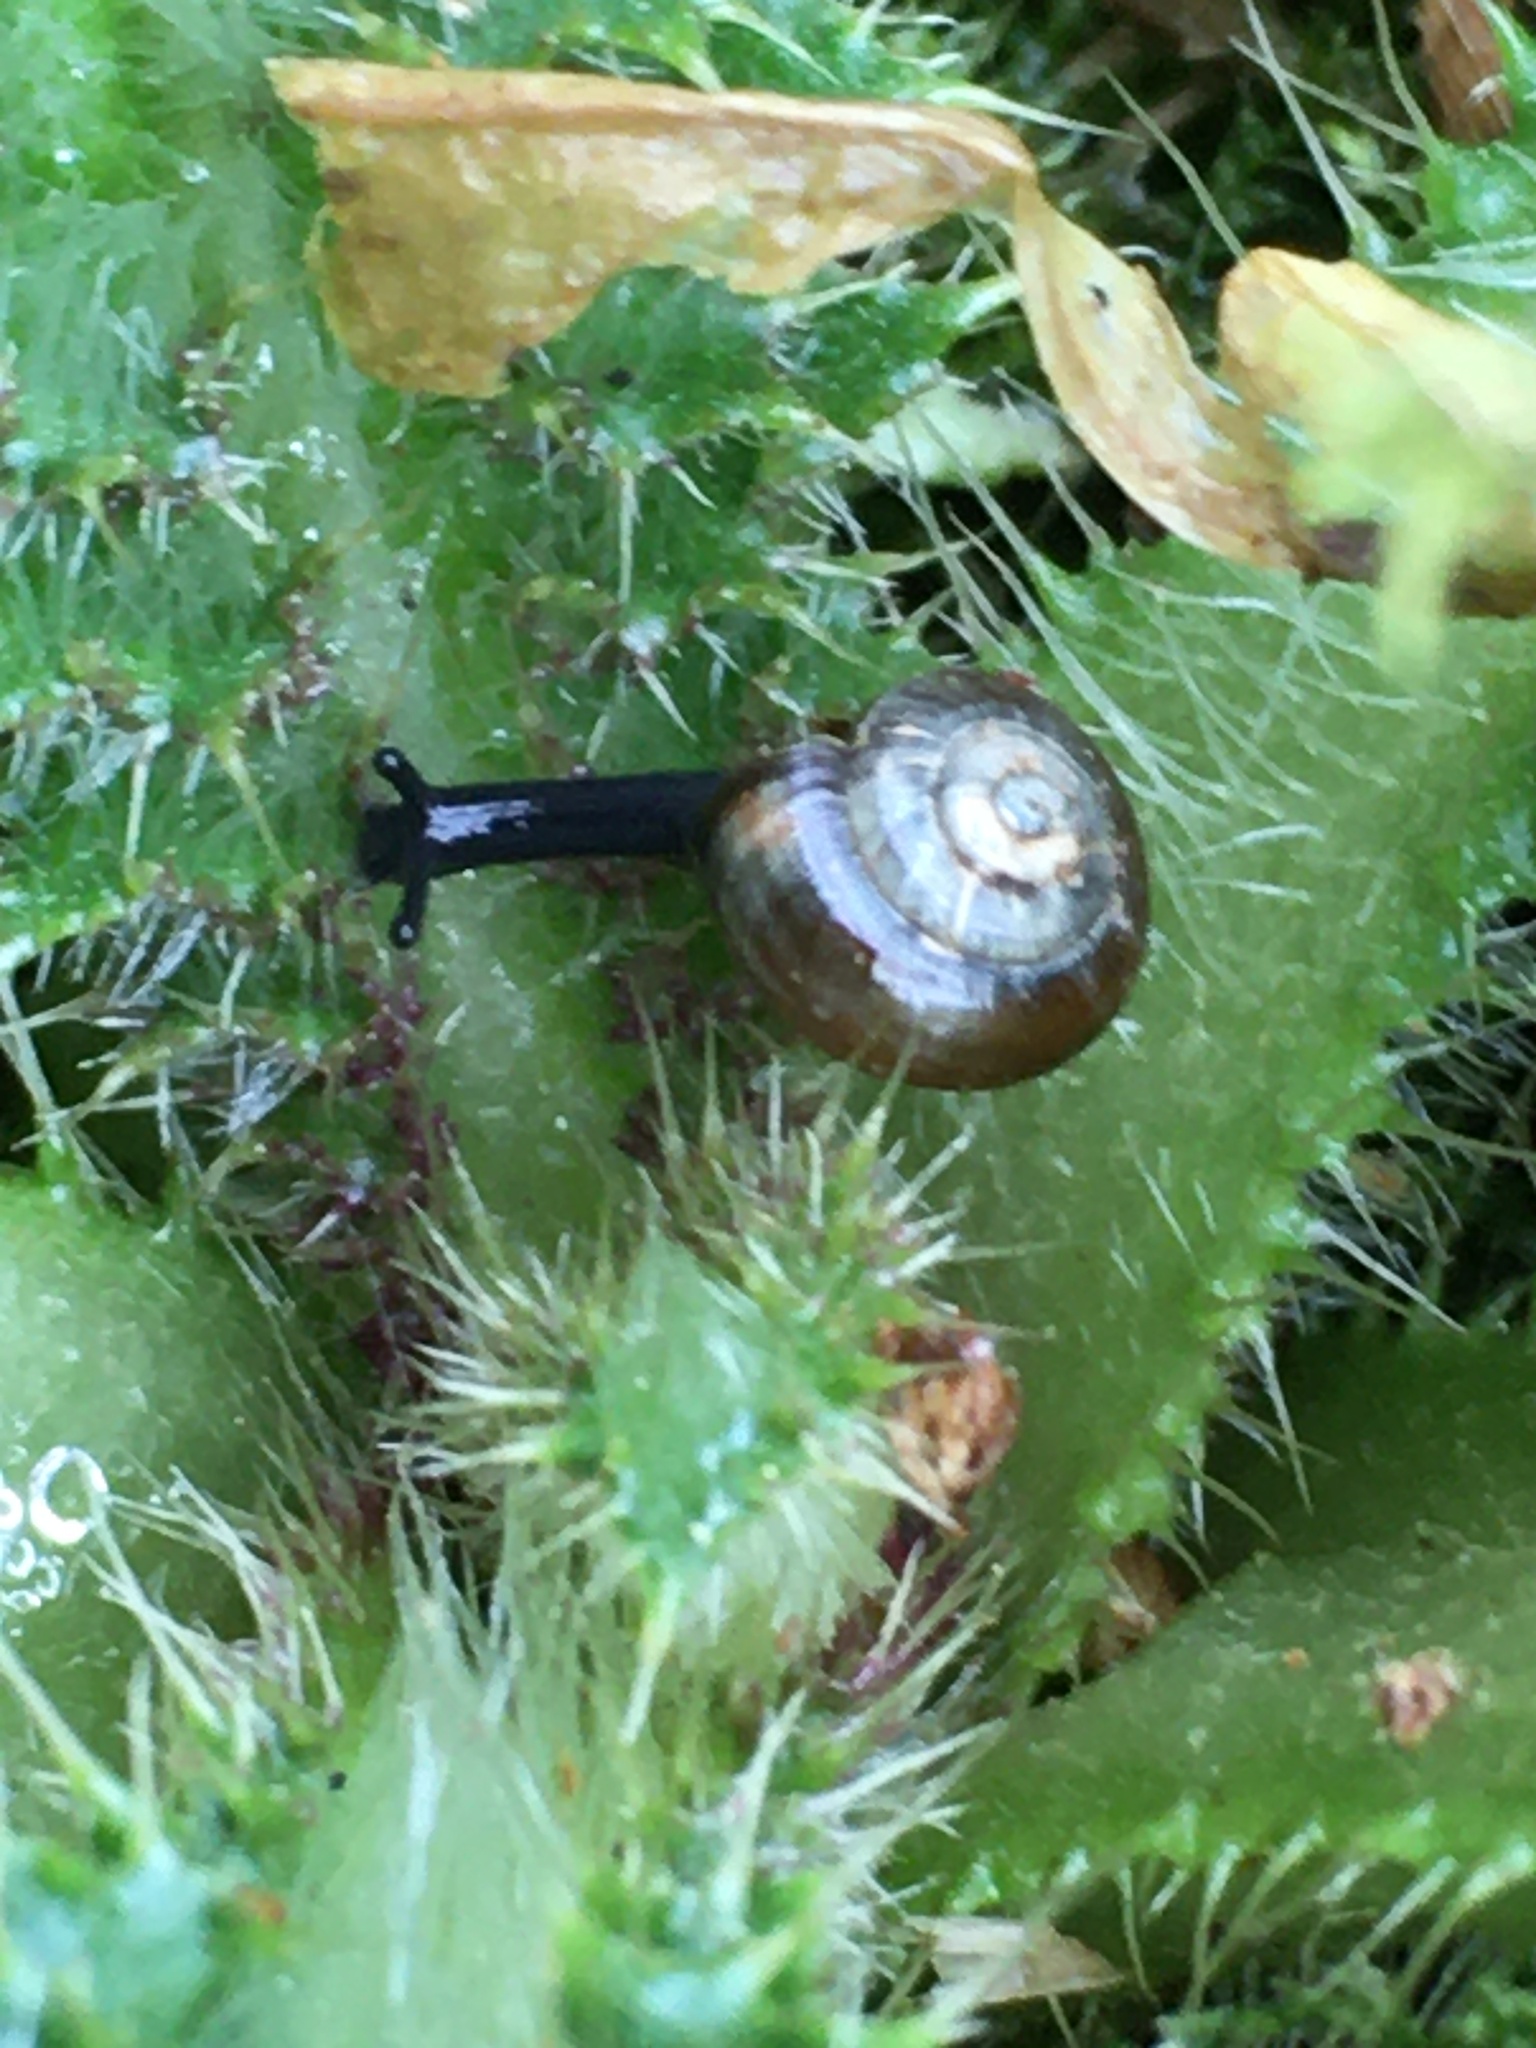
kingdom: Animalia
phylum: Mollusca
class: Gastropoda
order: Stylommatophora
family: Gastrodontidae
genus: Zonitoides
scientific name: Zonitoides nitidus
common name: Shiny glass snail
